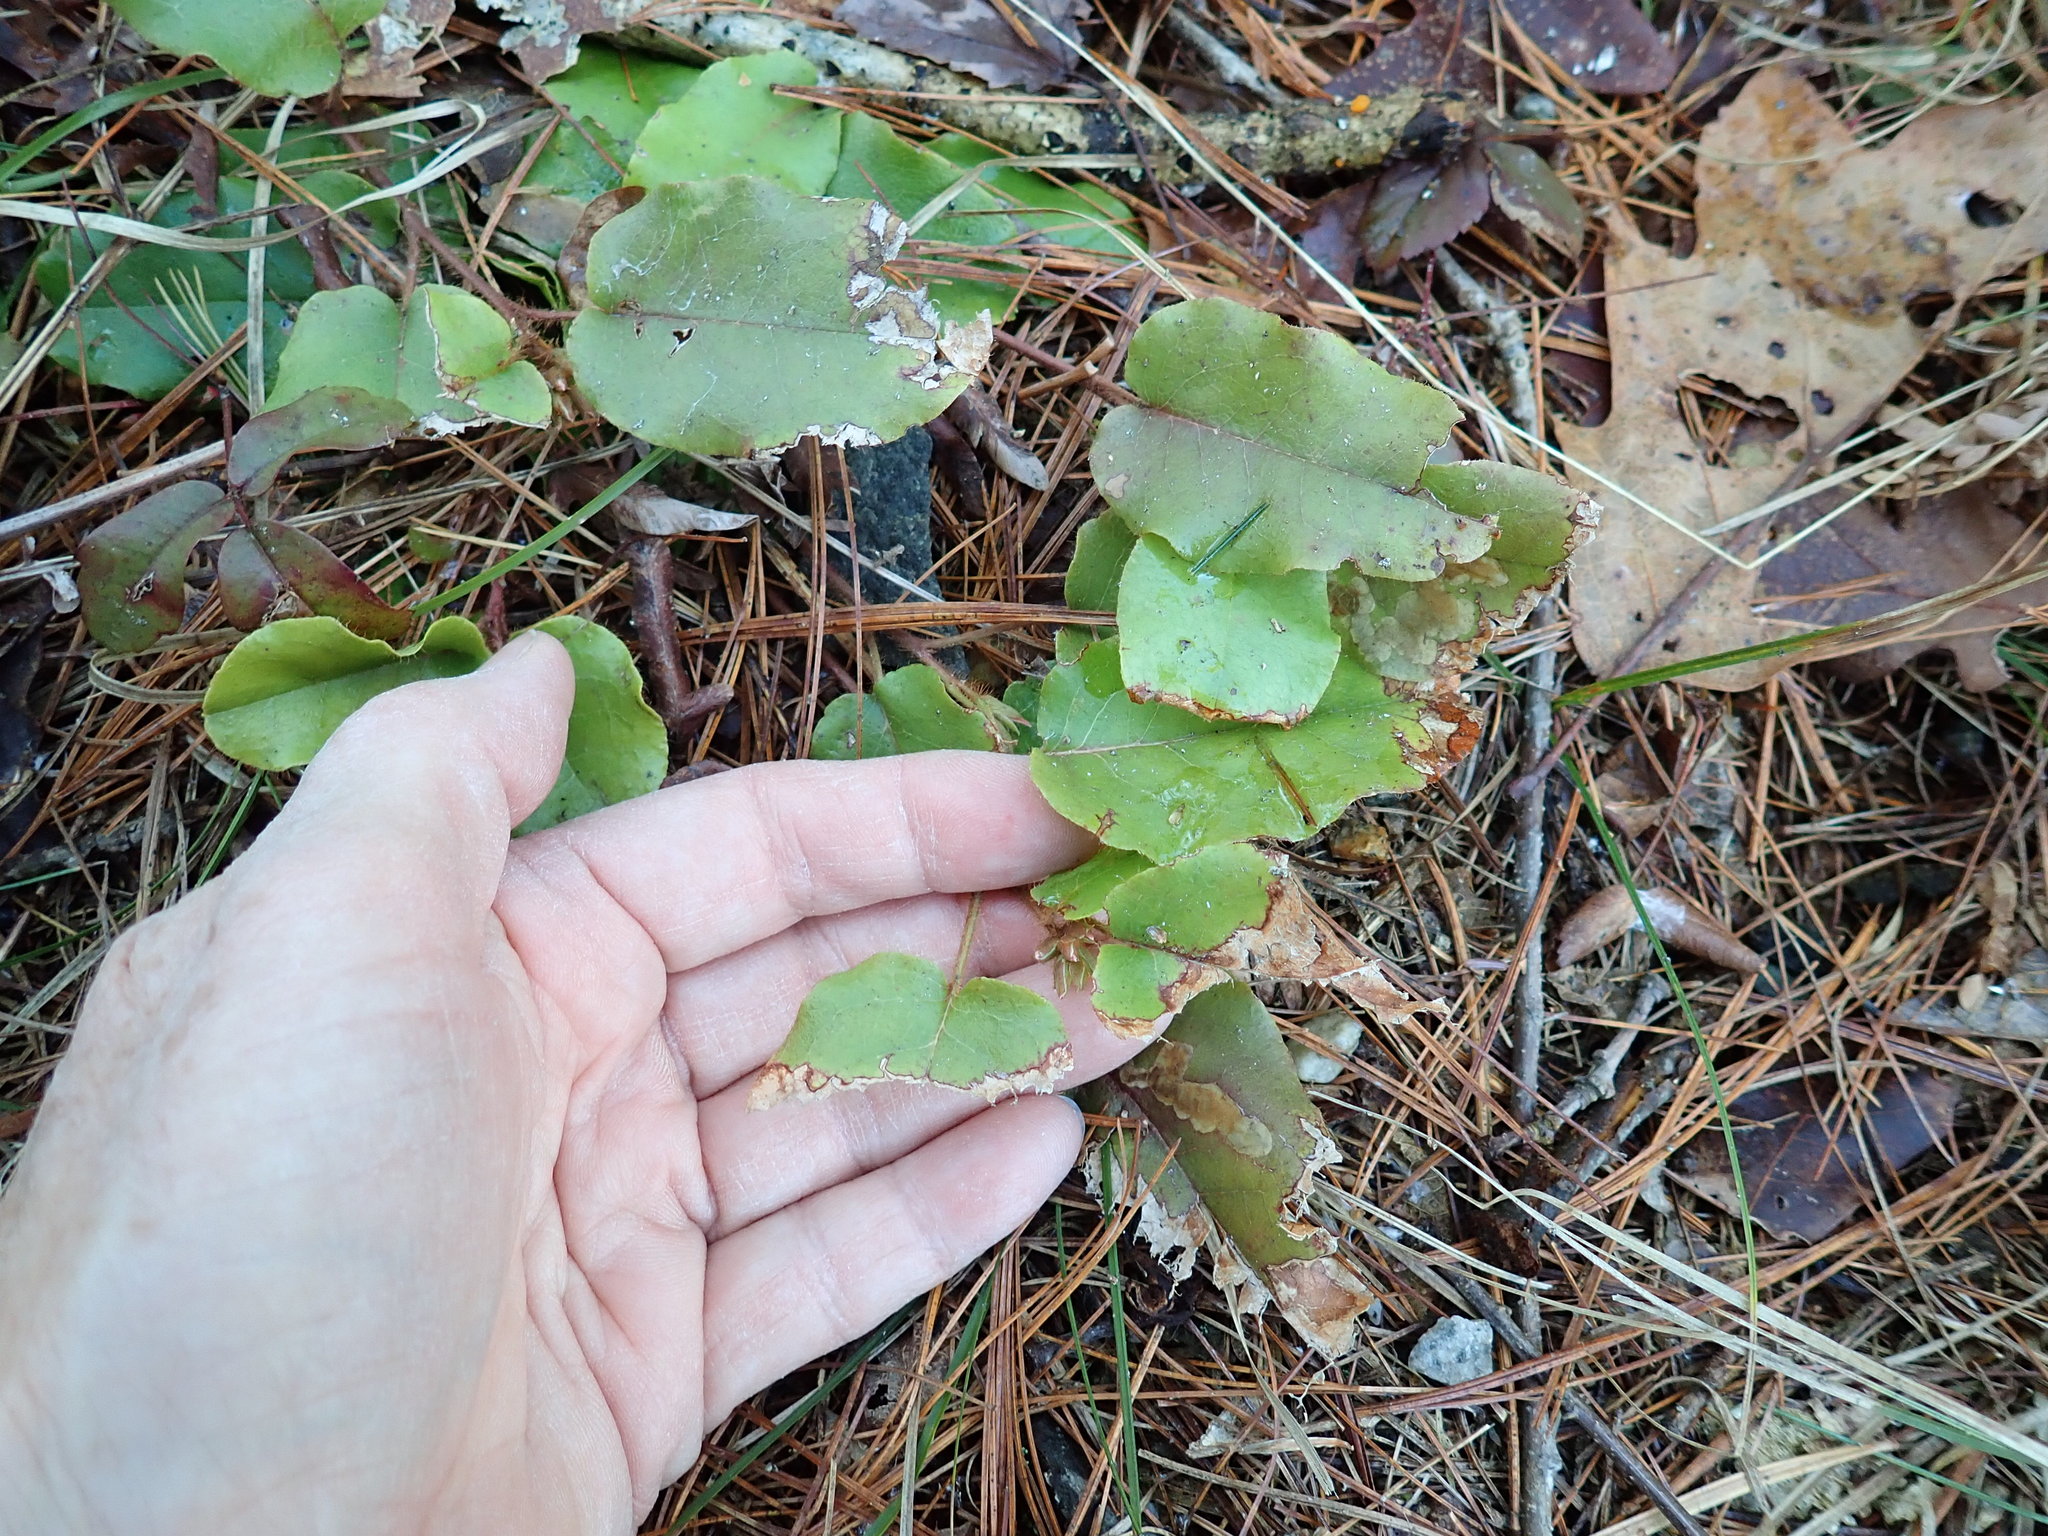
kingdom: Plantae
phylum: Tracheophyta
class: Magnoliopsida
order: Ericales
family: Ericaceae
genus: Epigaea
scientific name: Epigaea repens
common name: Gravelroot
